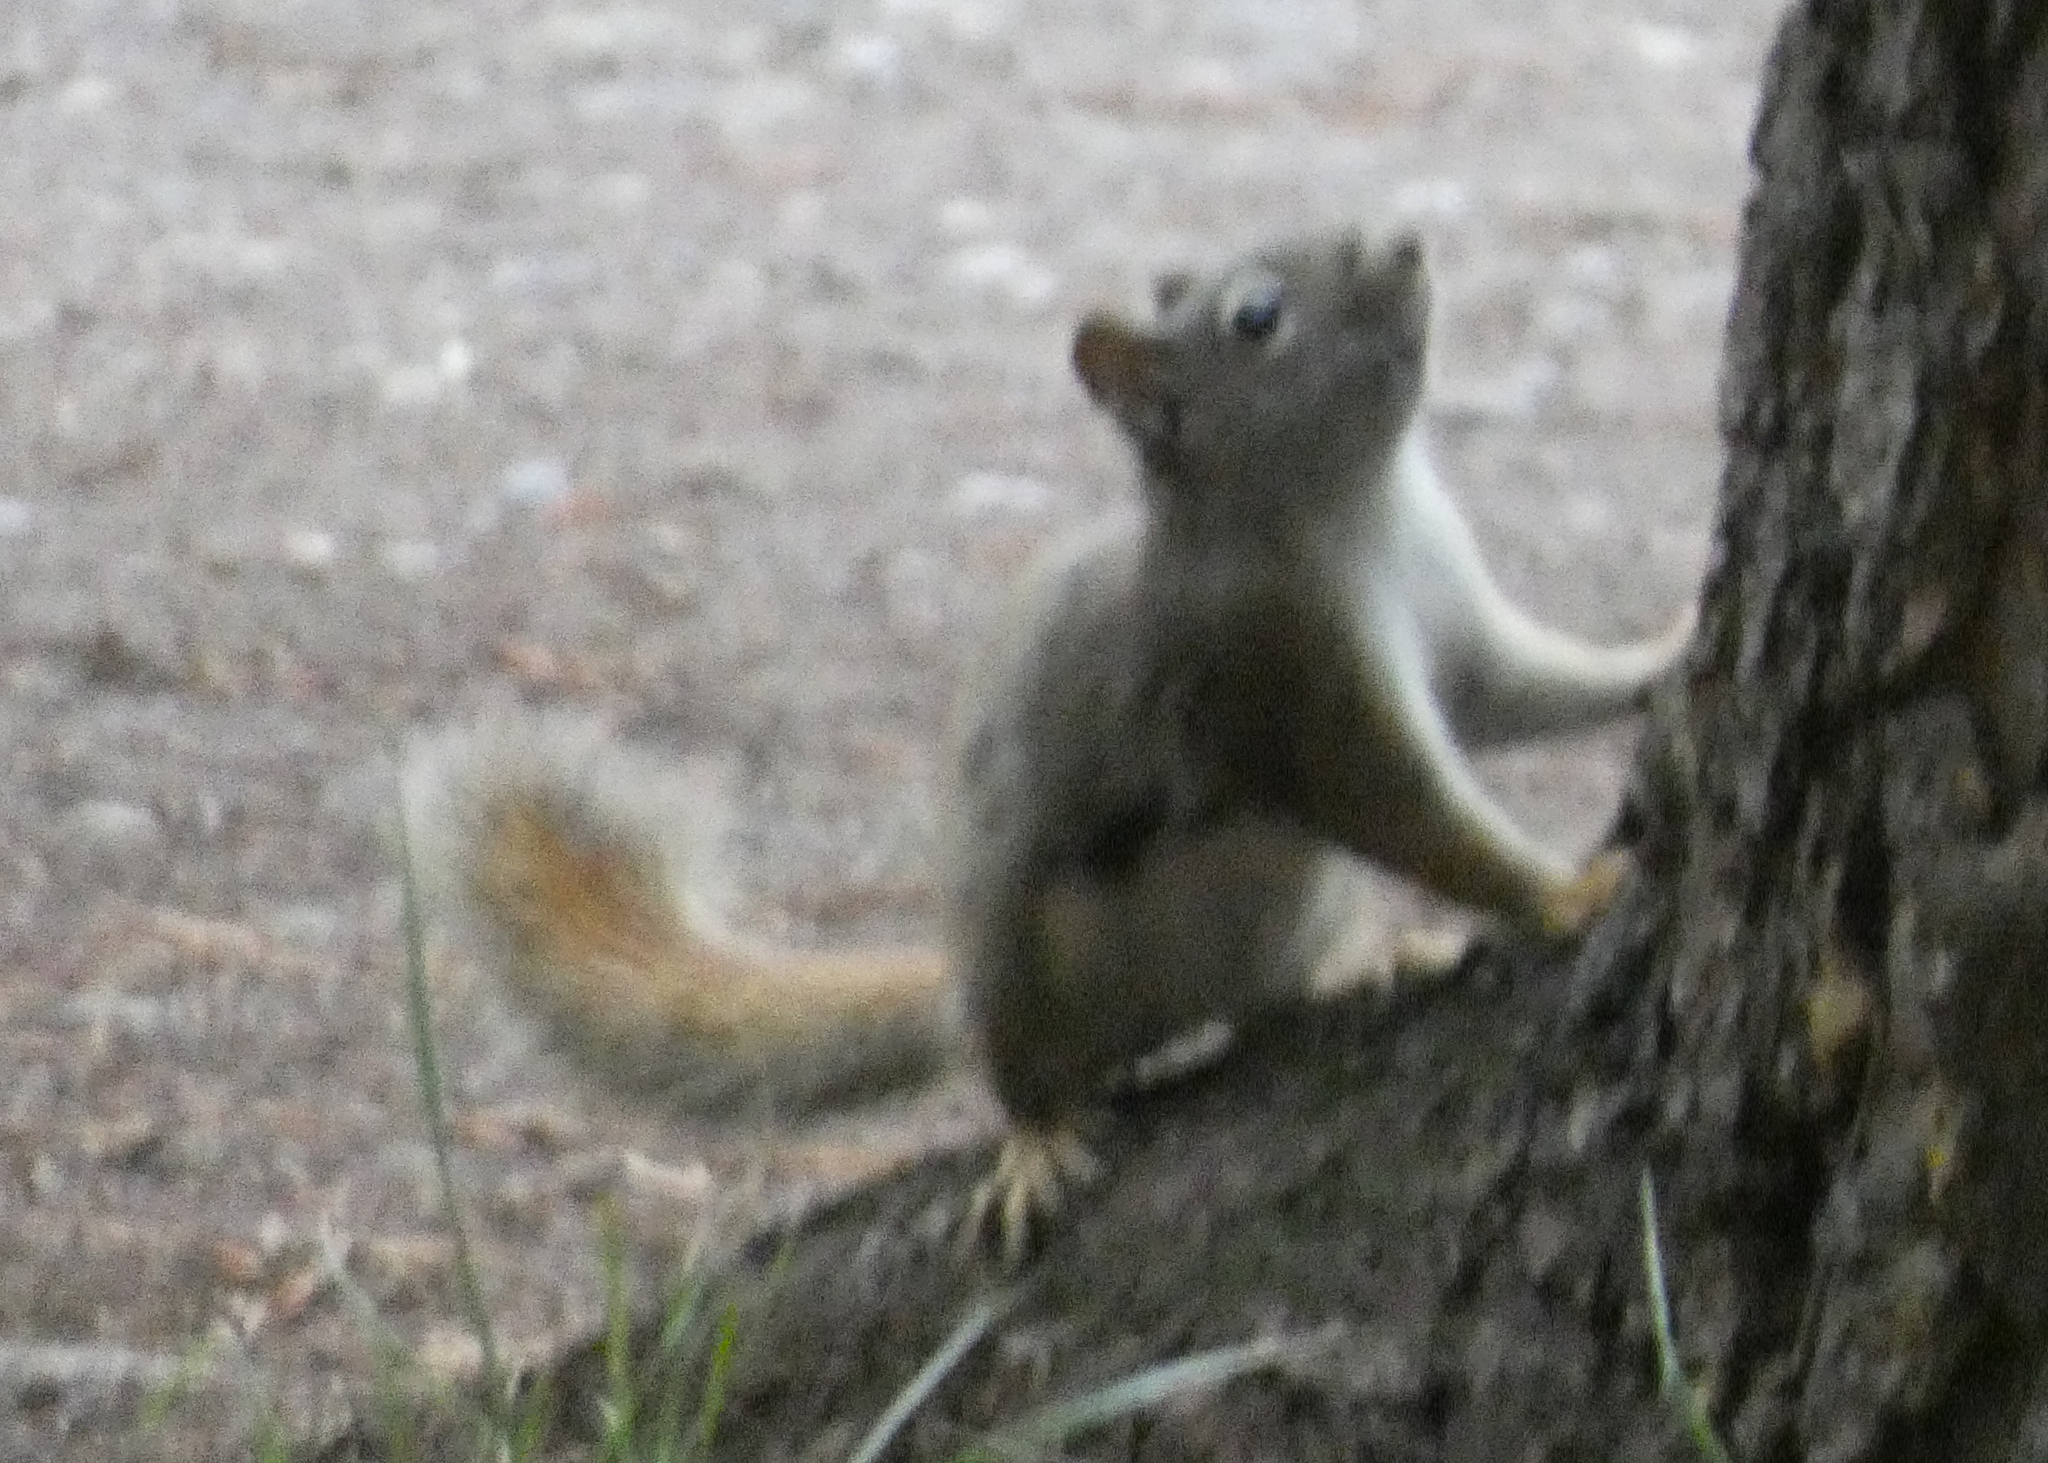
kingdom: Animalia
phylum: Chordata
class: Mammalia
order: Rodentia
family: Sciuridae
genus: Tamiasciurus
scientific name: Tamiasciurus hudsonicus
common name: Red squirrel
